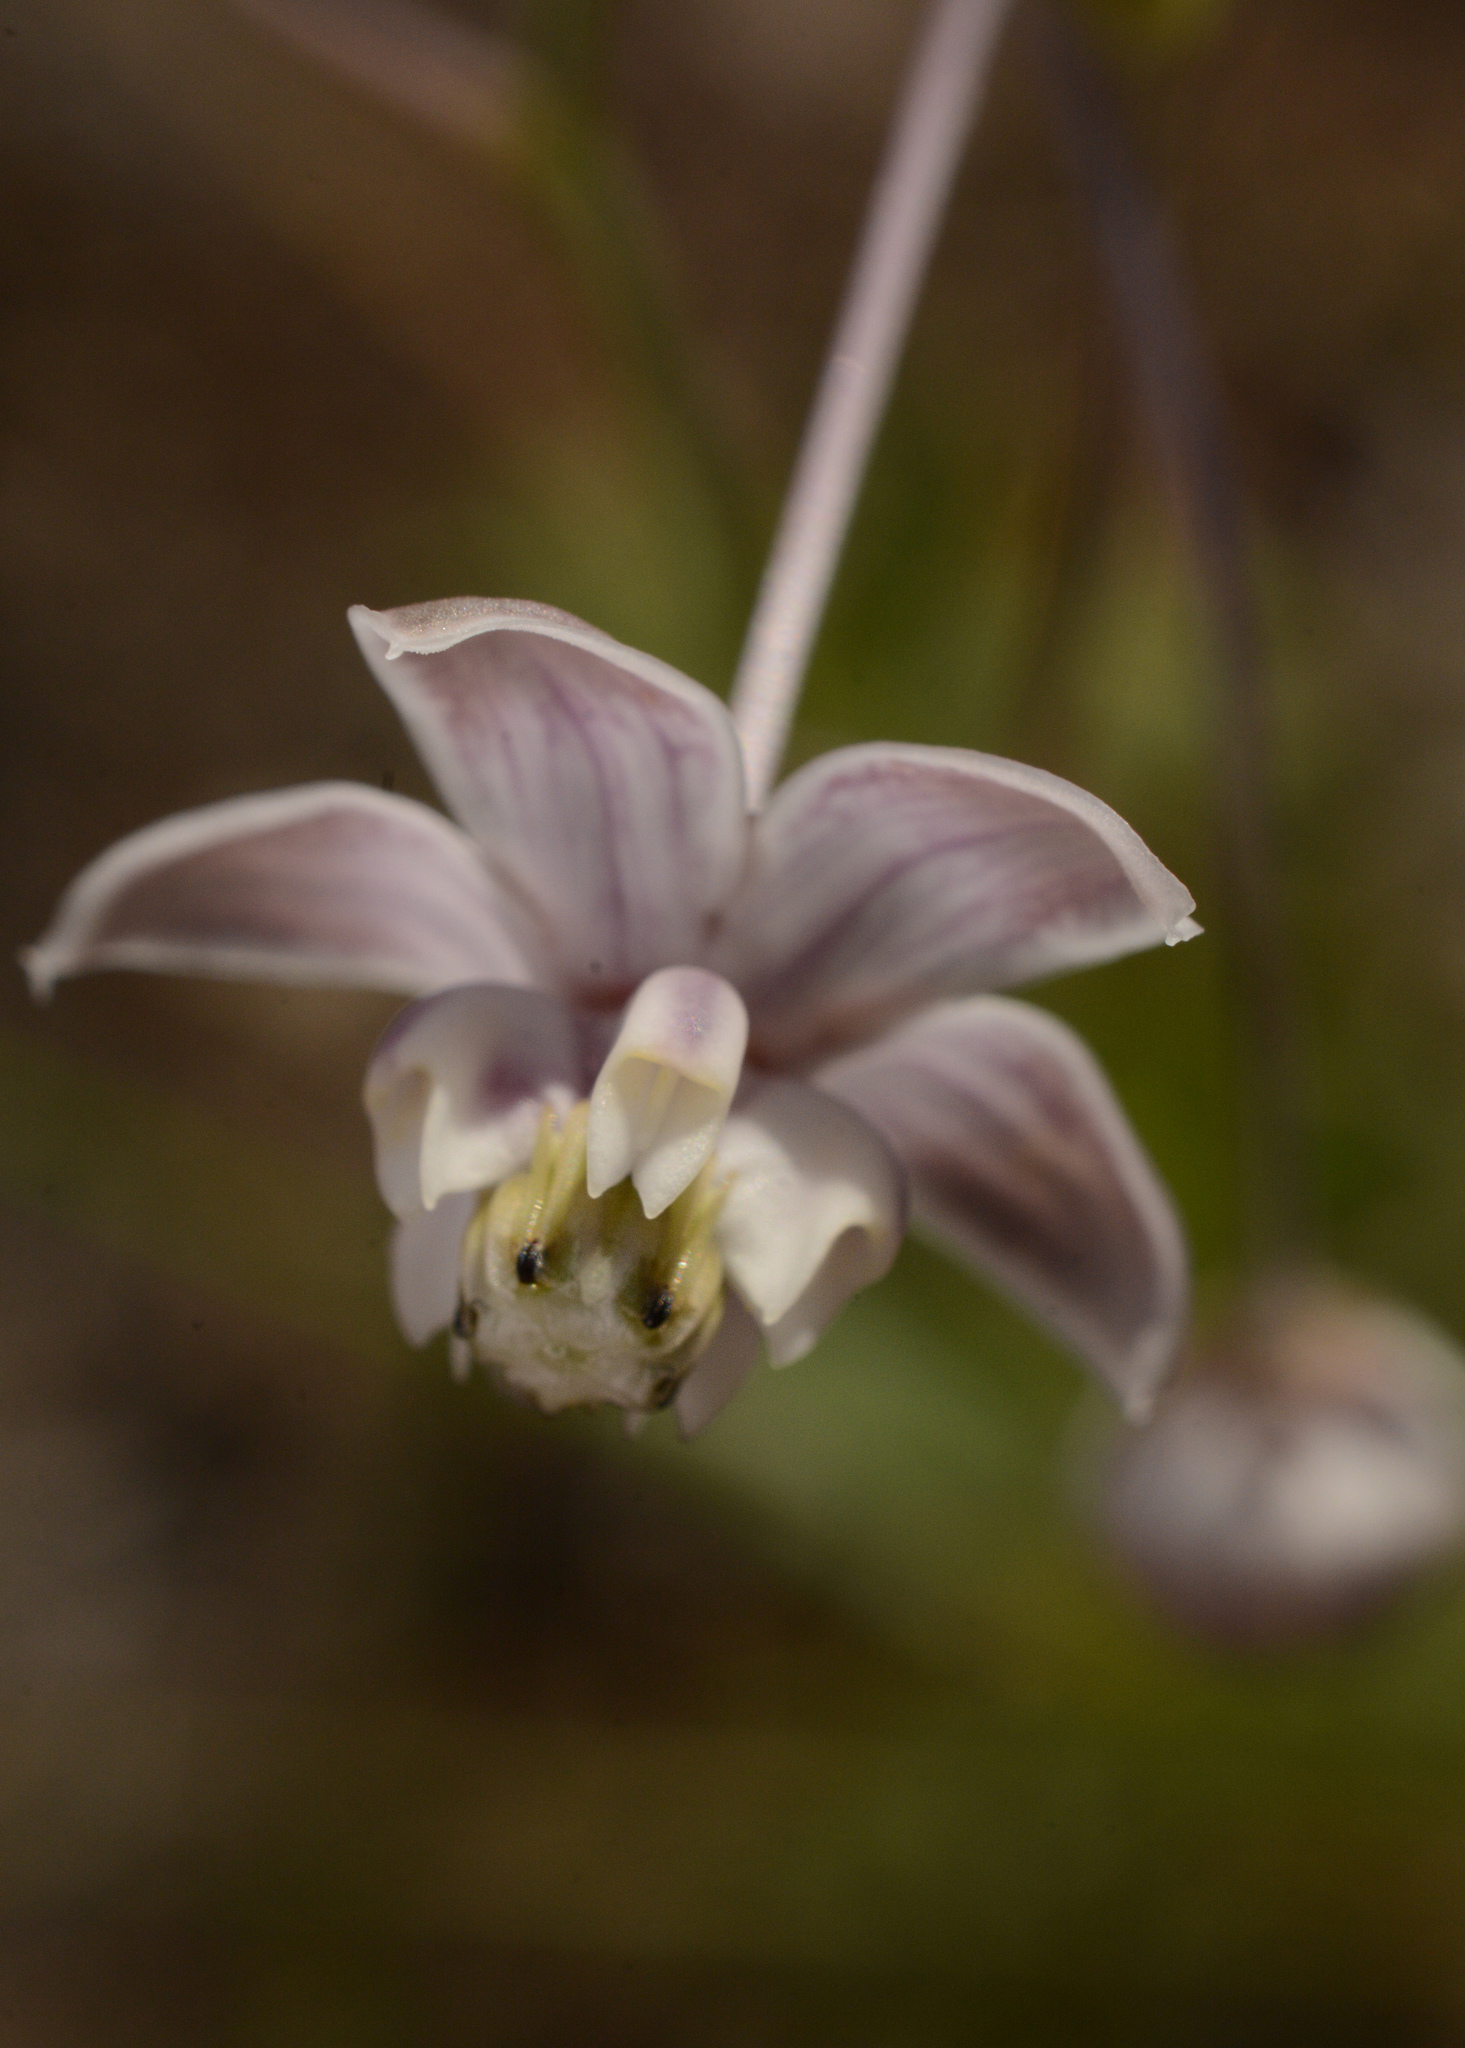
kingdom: Plantae
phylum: Tracheophyta
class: Magnoliopsida
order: Gentianales
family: Apocynaceae
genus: Asclepias
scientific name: Asclepias cinerea
